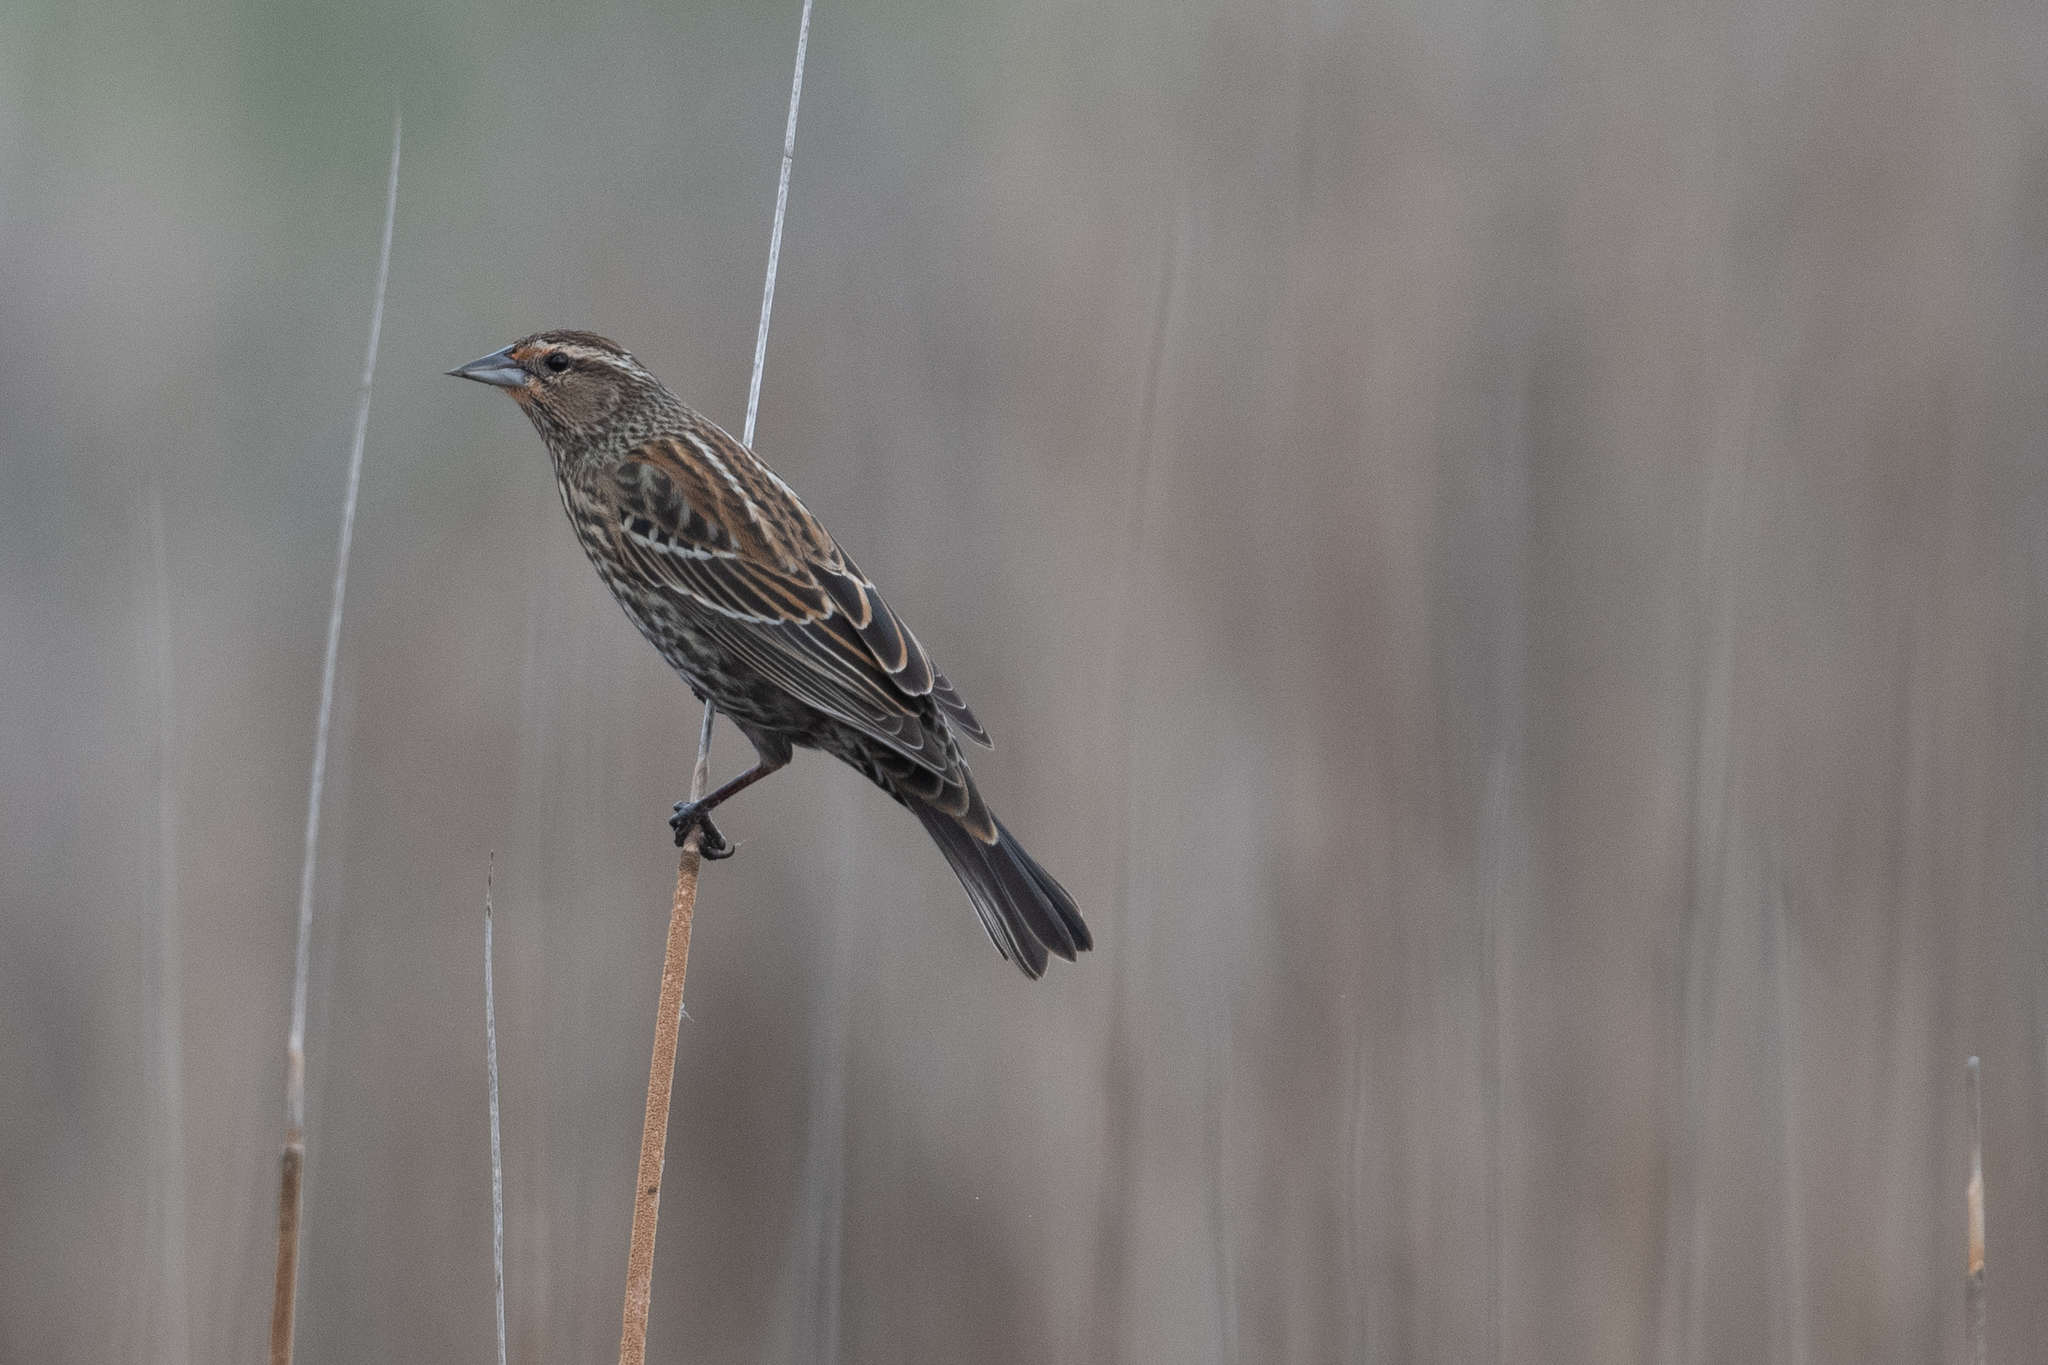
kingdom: Animalia
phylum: Chordata
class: Aves
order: Passeriformes
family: Icteridae
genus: Agelaius
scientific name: Agelaius phoeniceus
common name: Red-winged blackbird
